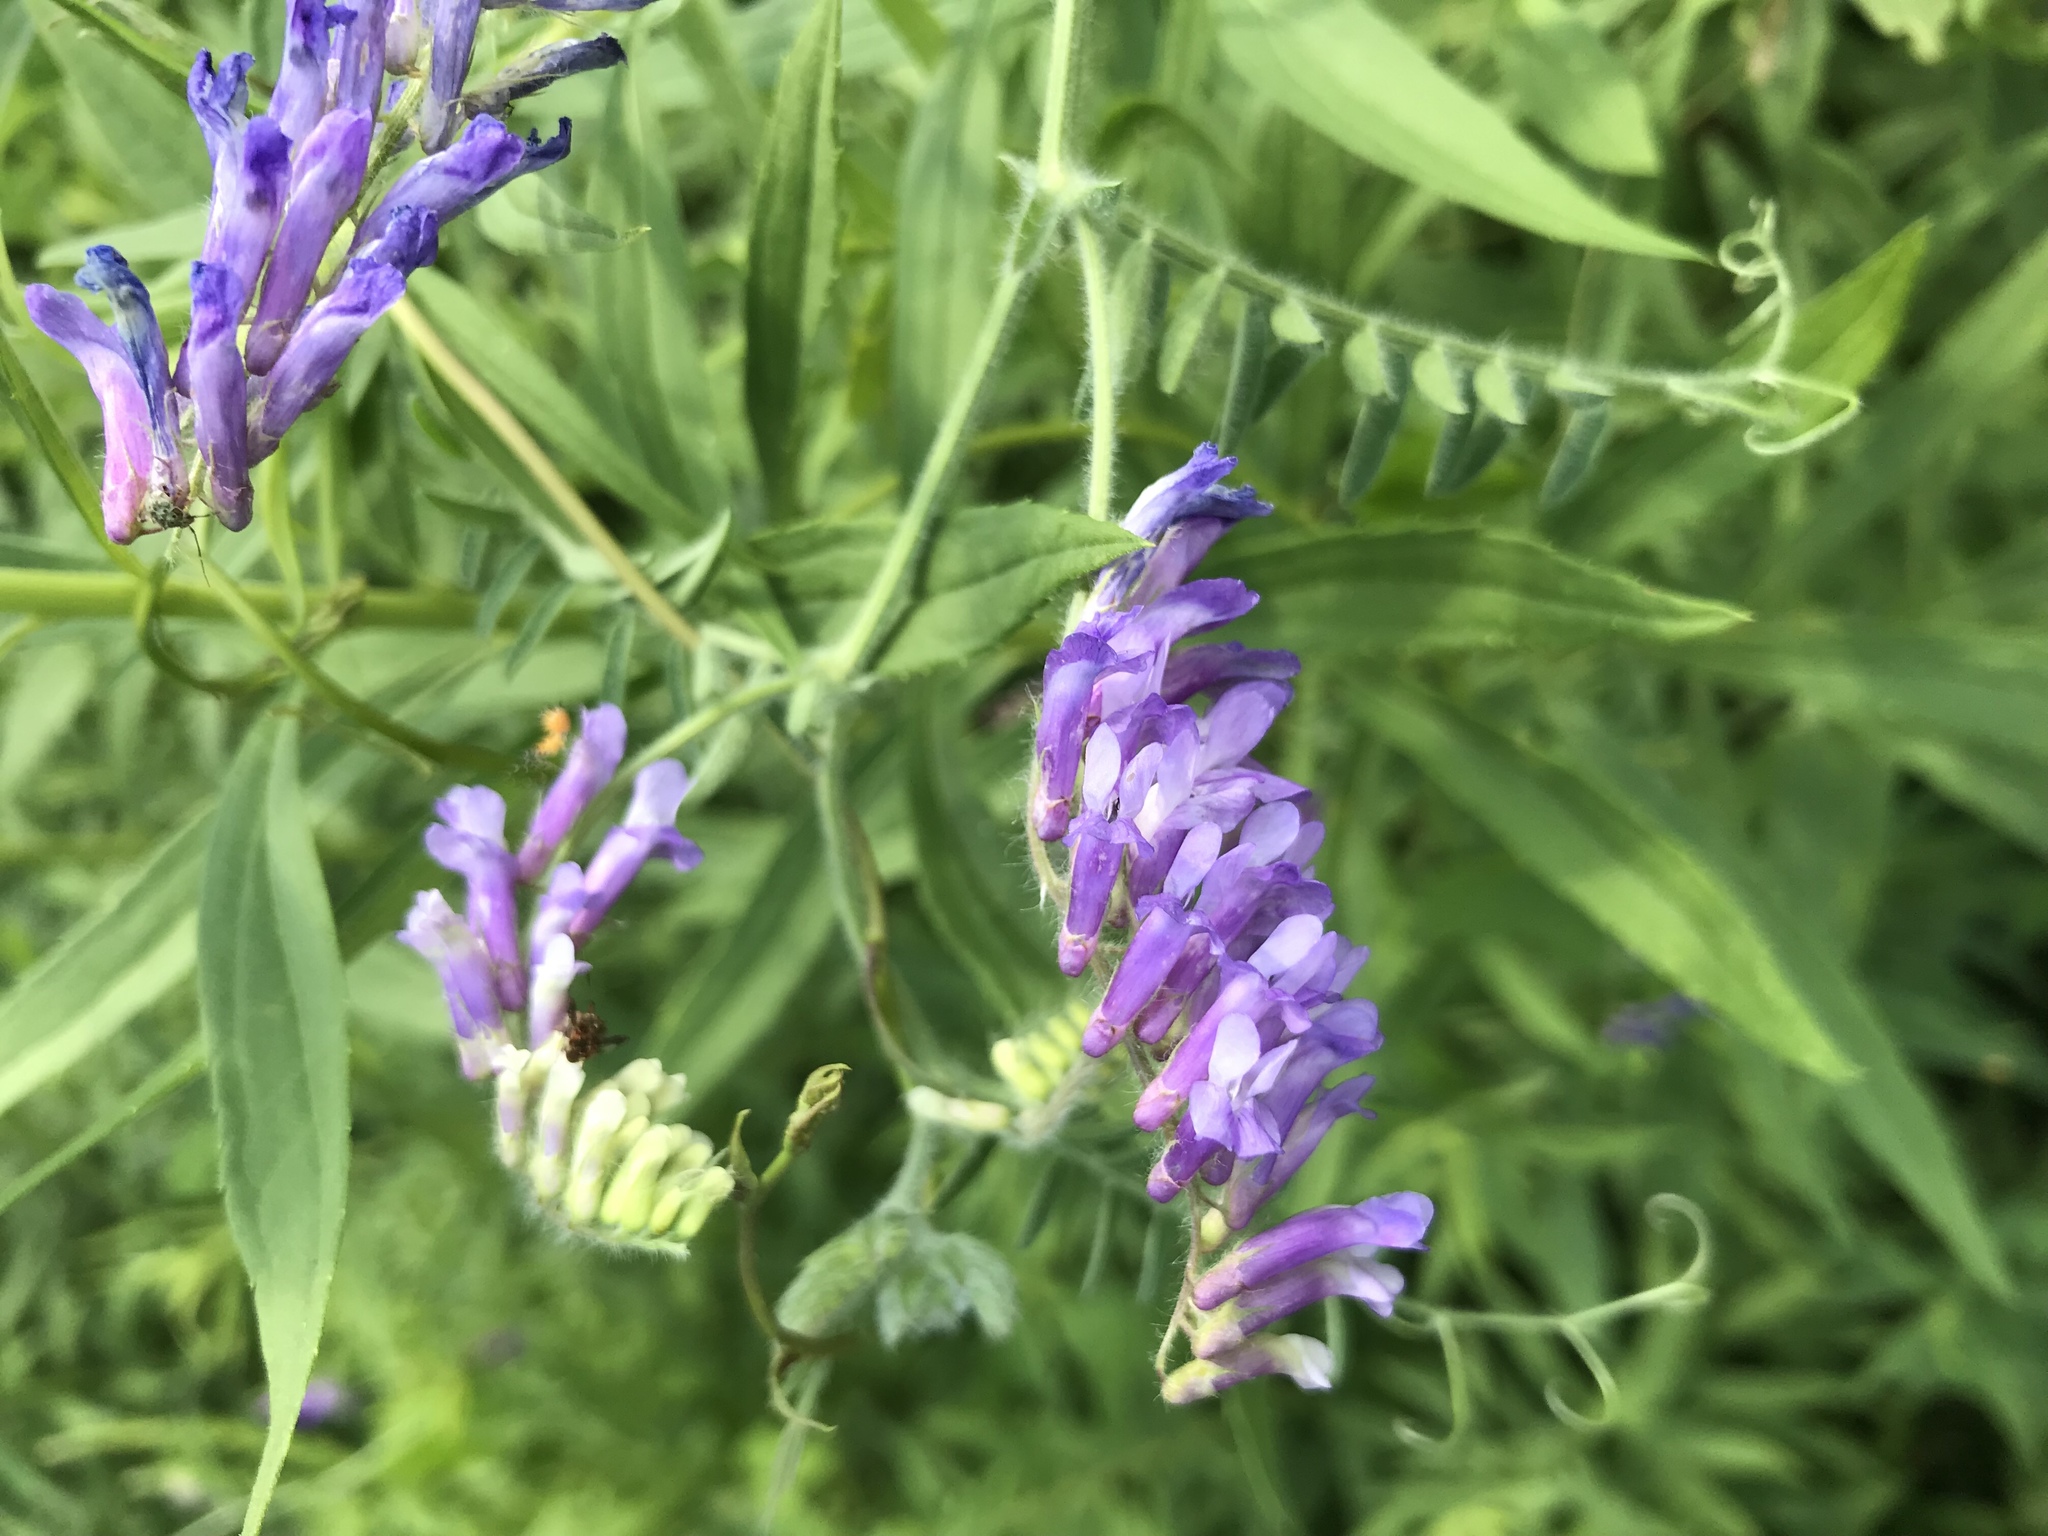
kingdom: Plantae
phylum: Tracheophyta
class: Magnoliopsida
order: Fabales
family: Fabaceae
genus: Vicia
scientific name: Vicia villosa
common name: Fodder vetch
